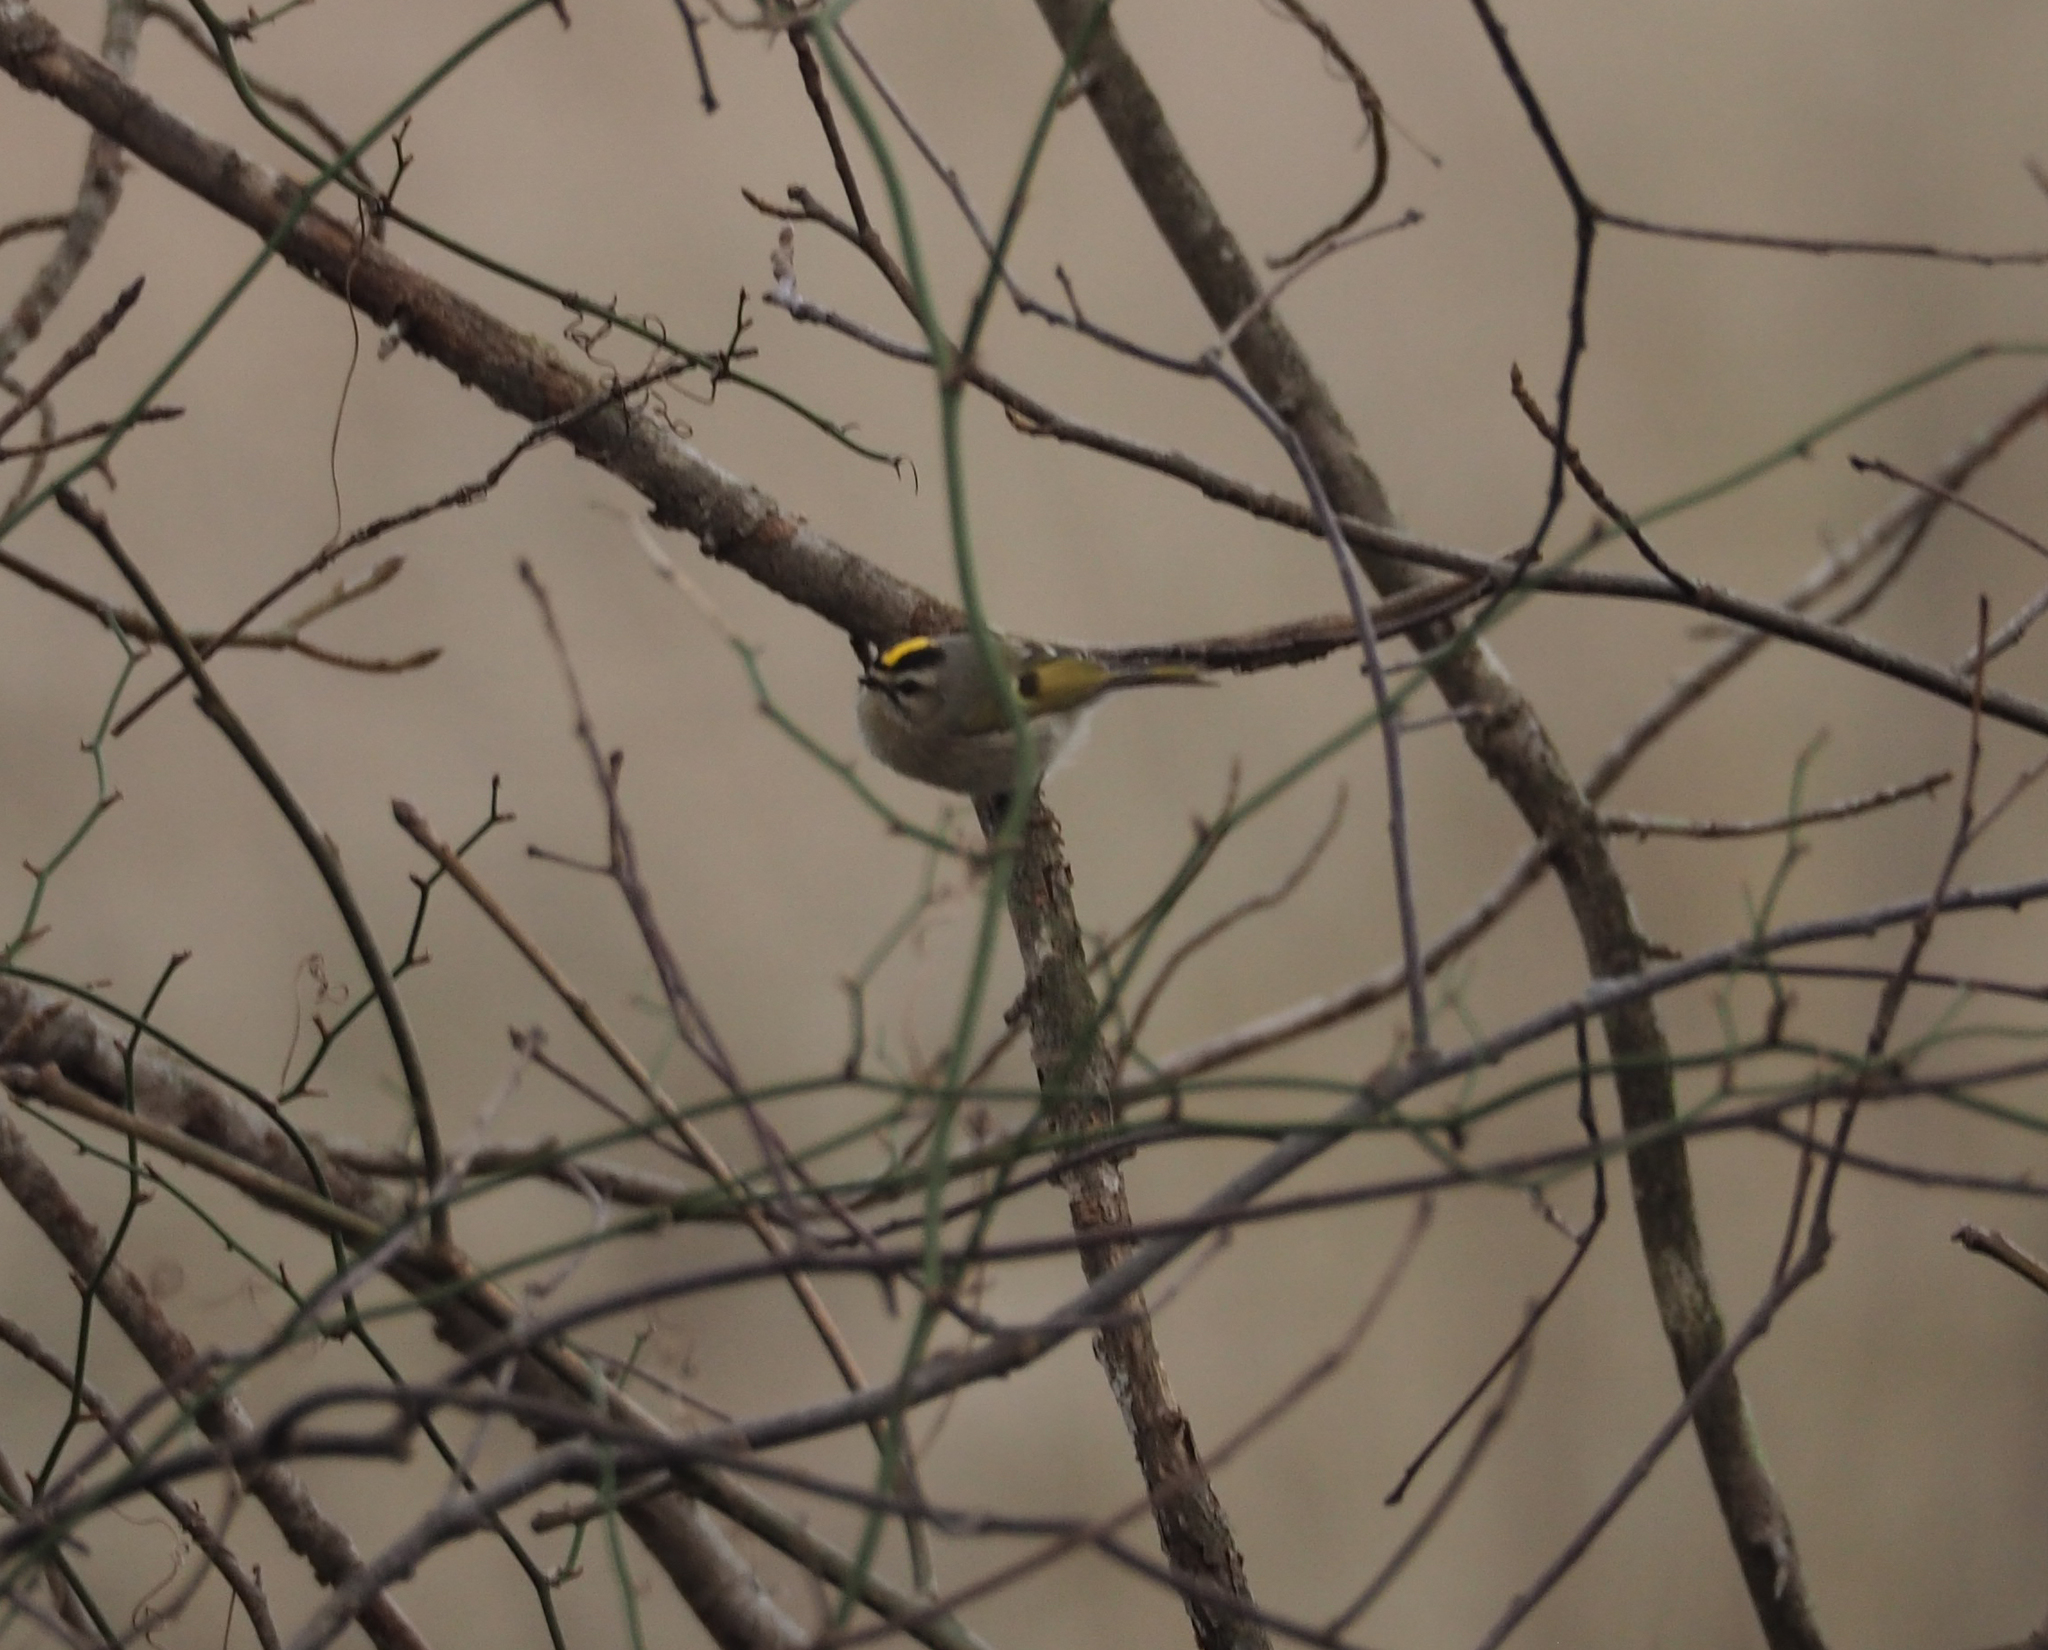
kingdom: Animalia
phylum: Chordata
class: Aves
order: Passeriformes
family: Regulidae
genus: Regulus
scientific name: Regulus satrapa
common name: Golden-crowned kinglet
